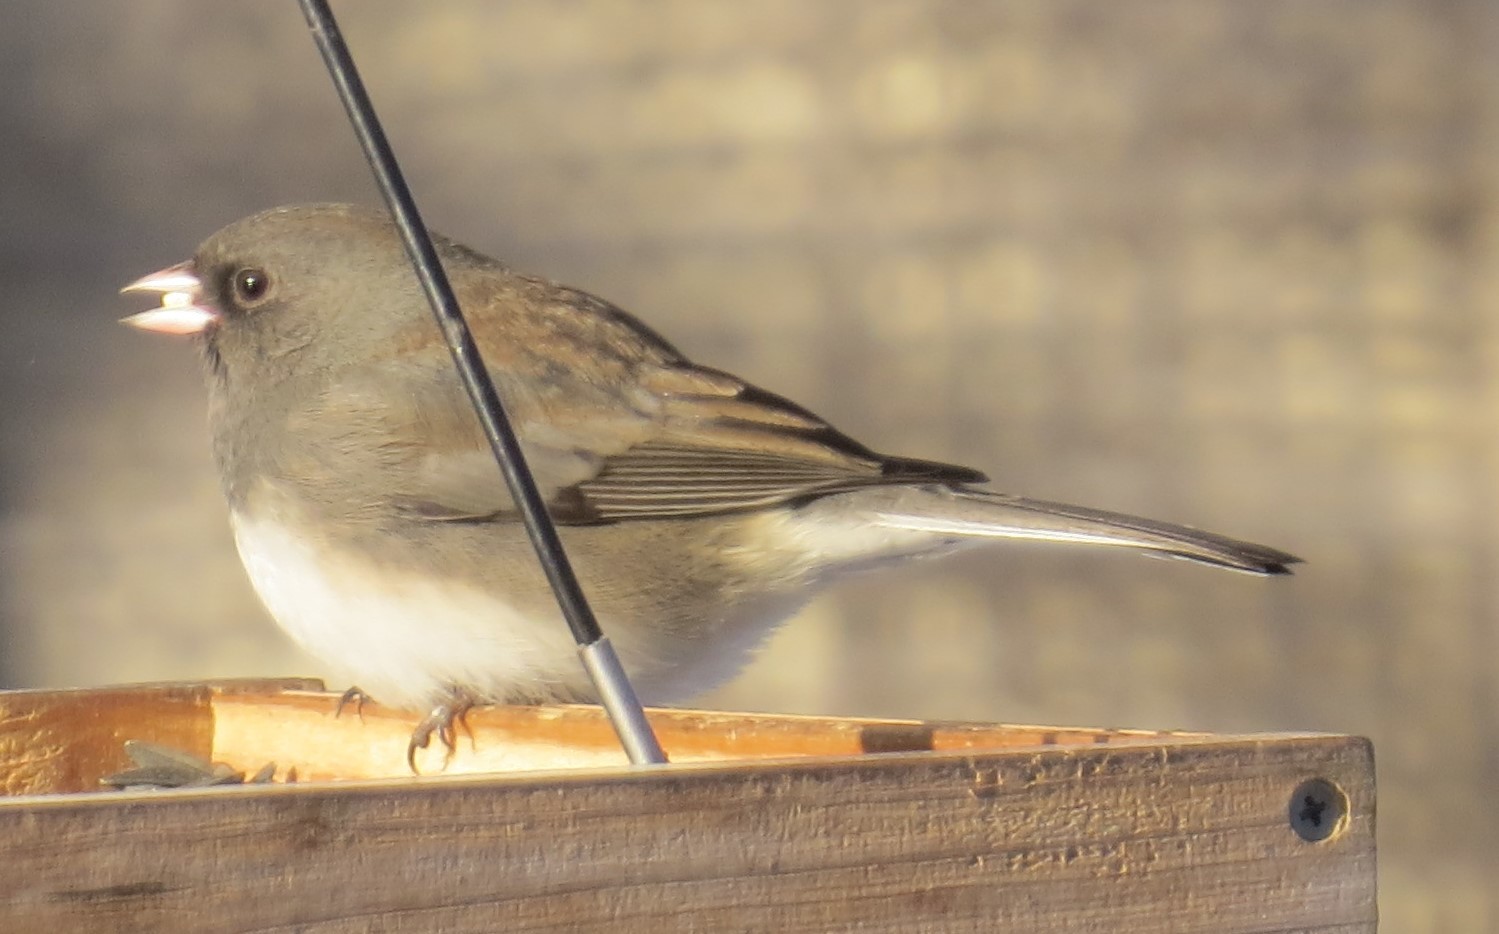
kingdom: Animalia
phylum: Chordata
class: Aves
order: Passeriformes
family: Passerellidae
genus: Junco
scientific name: Junco hyemalis
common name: Dark-eyed junco
